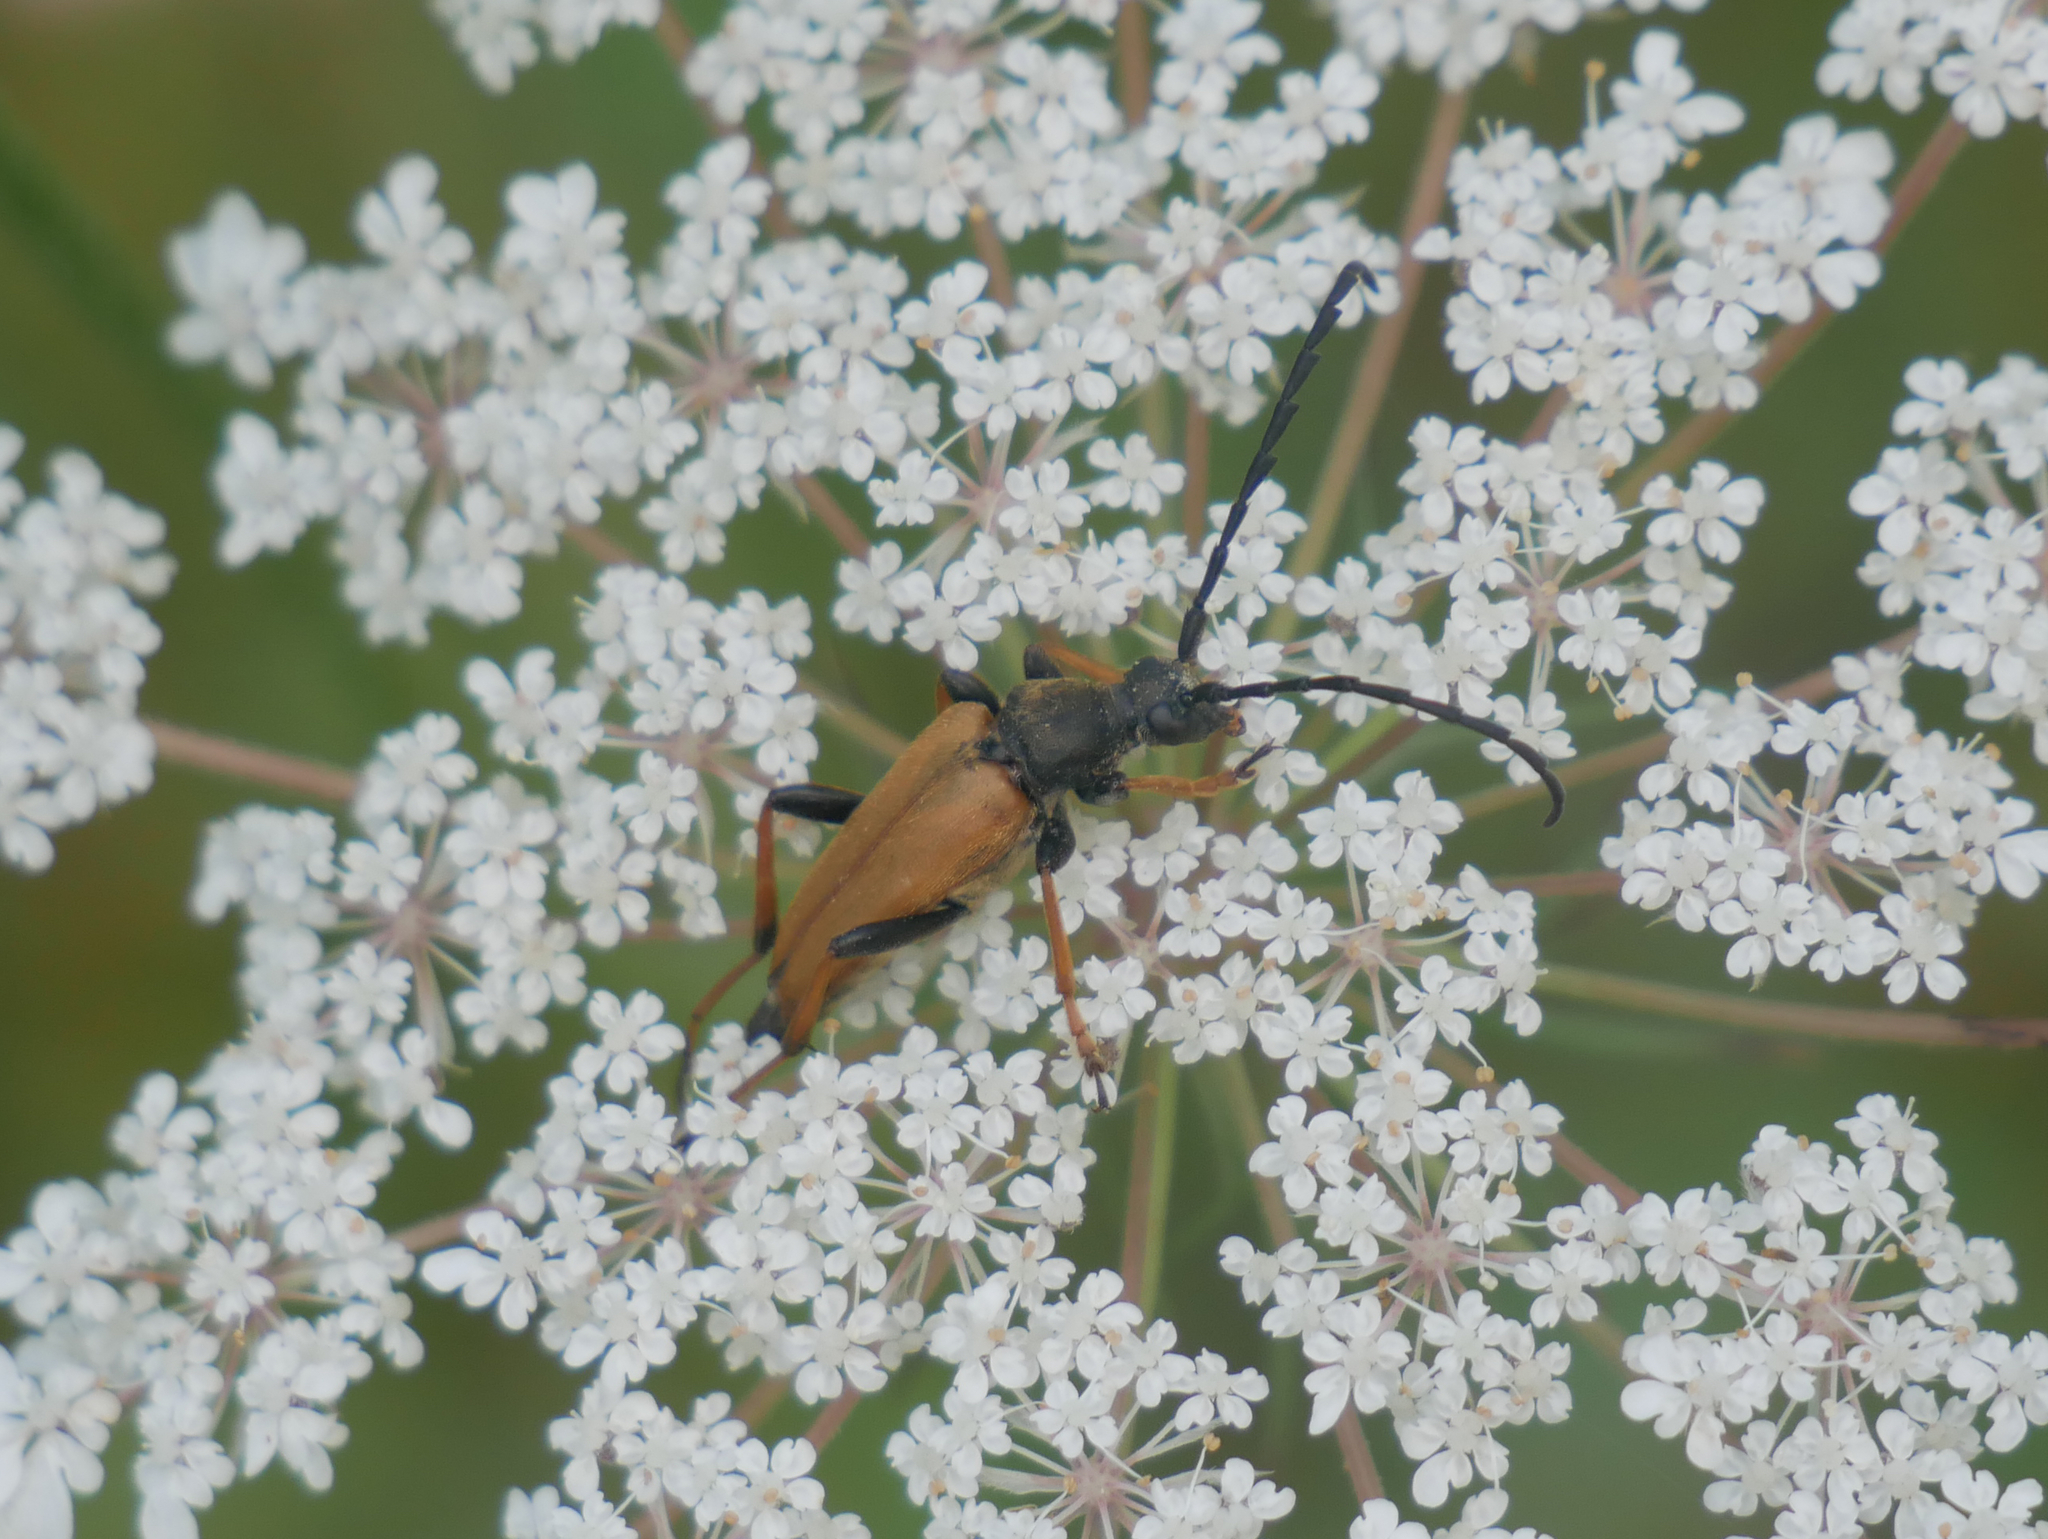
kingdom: Animalia
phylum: Arthropoda
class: Insecta
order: Coleoptera
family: Cerambycidae
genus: Stictoleptura
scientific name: Stictoleptura rubra
